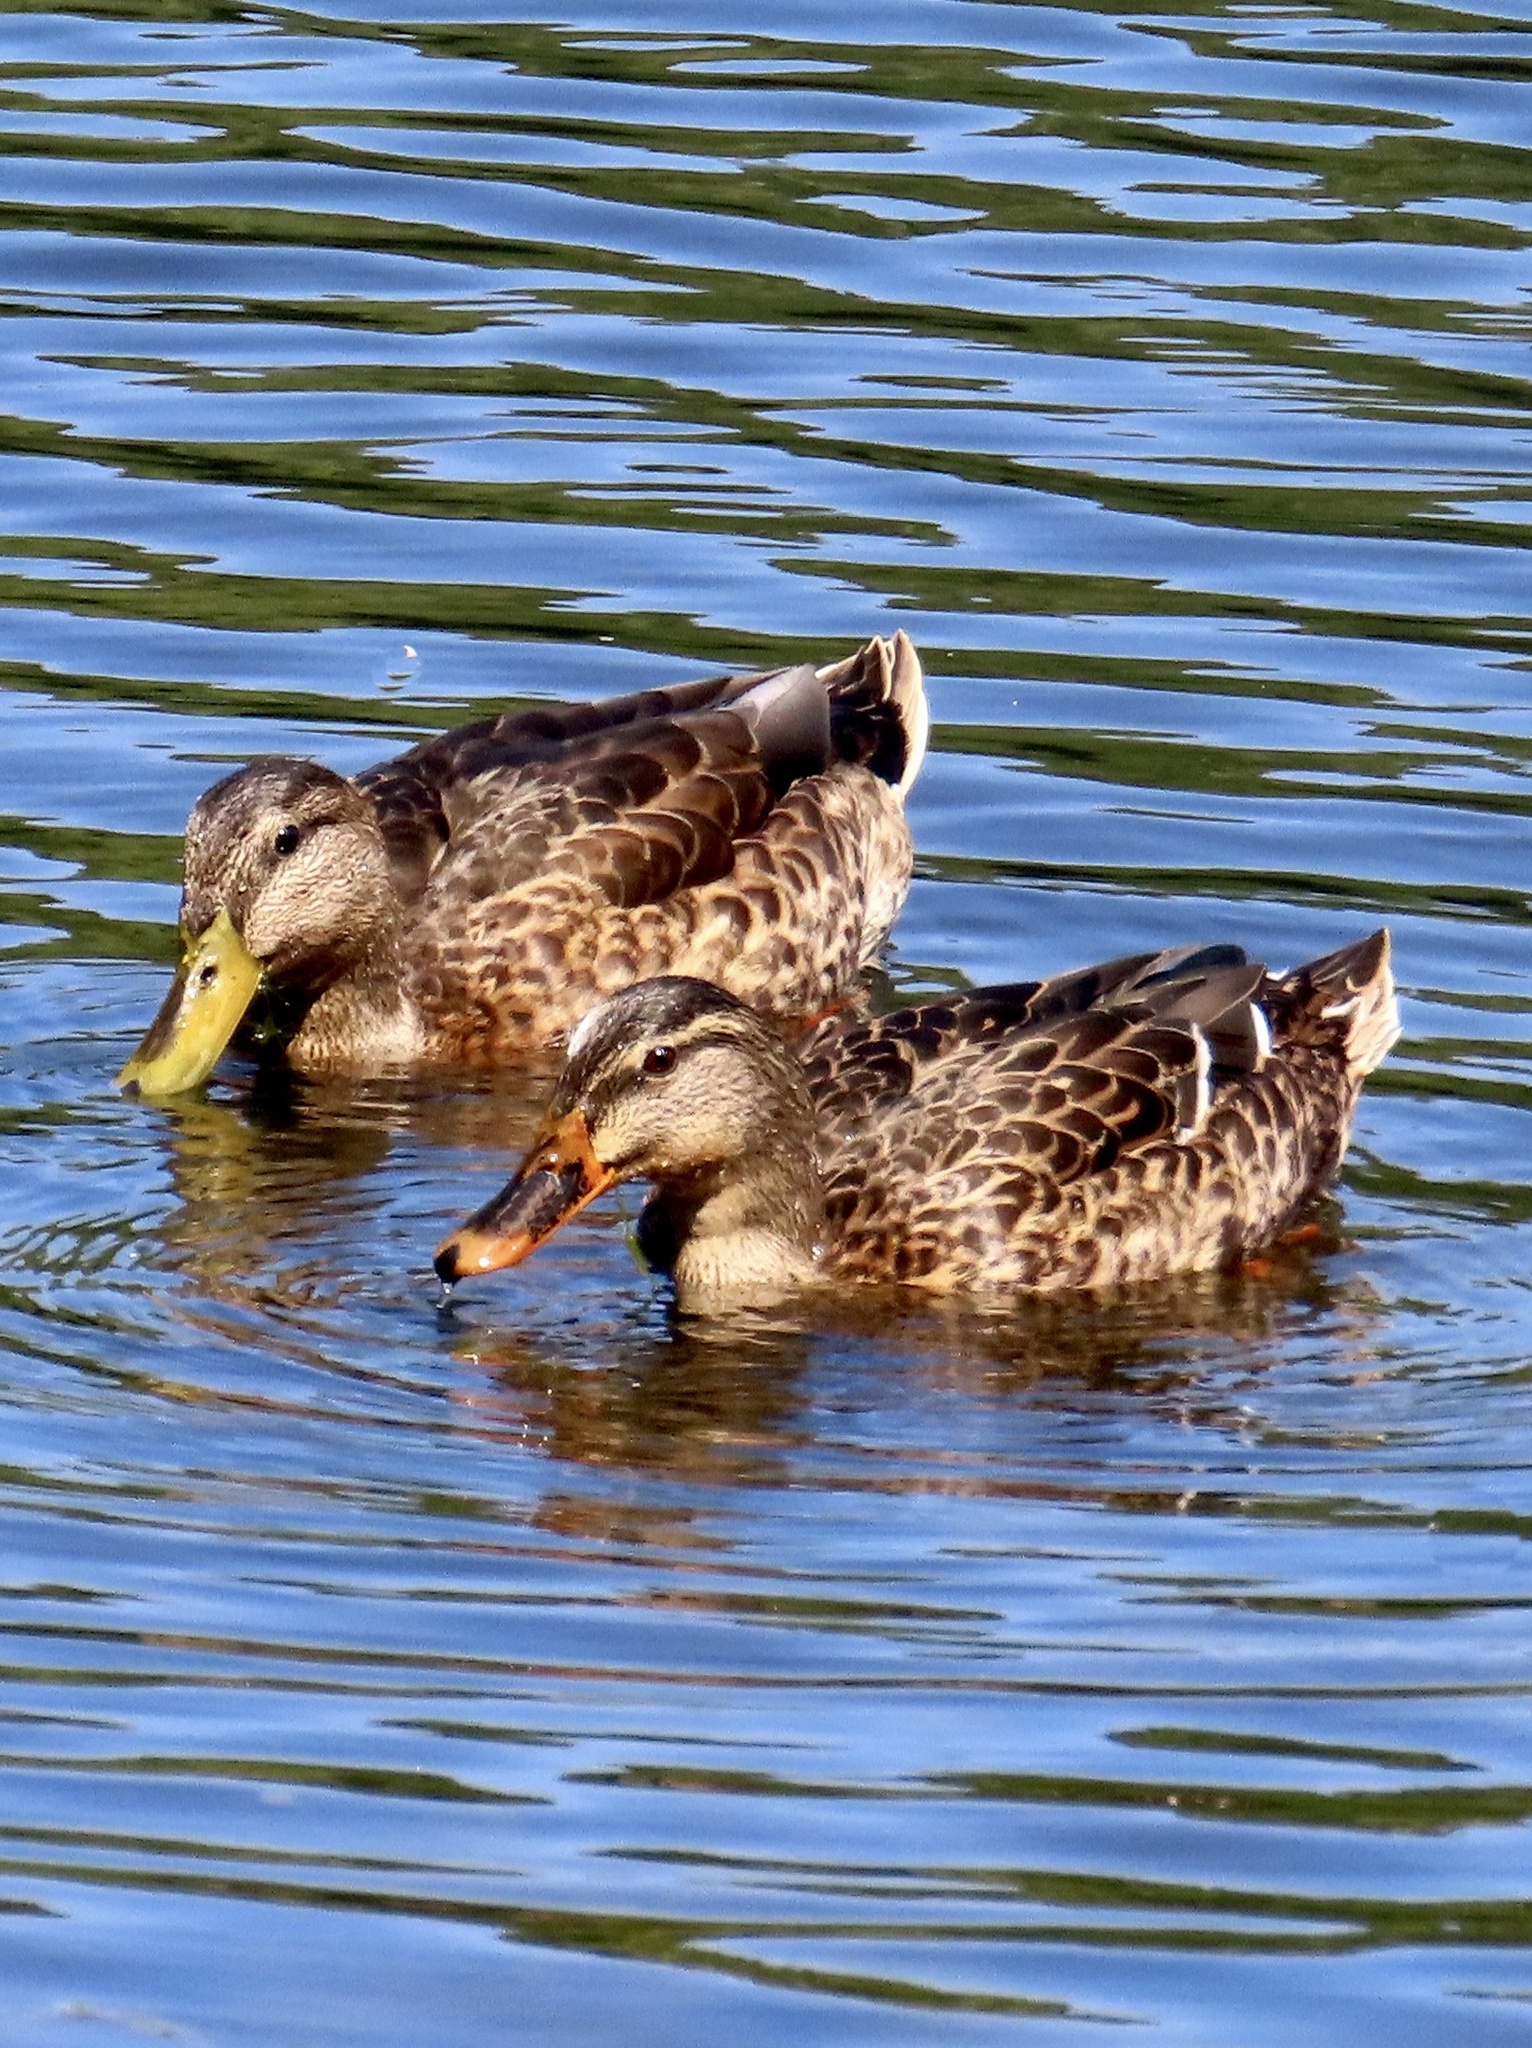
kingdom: Animalia
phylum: Chordata
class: Aves
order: Anseriformes
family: Anatidae
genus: Anas
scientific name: Anas platyrhynchos
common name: Mallard
